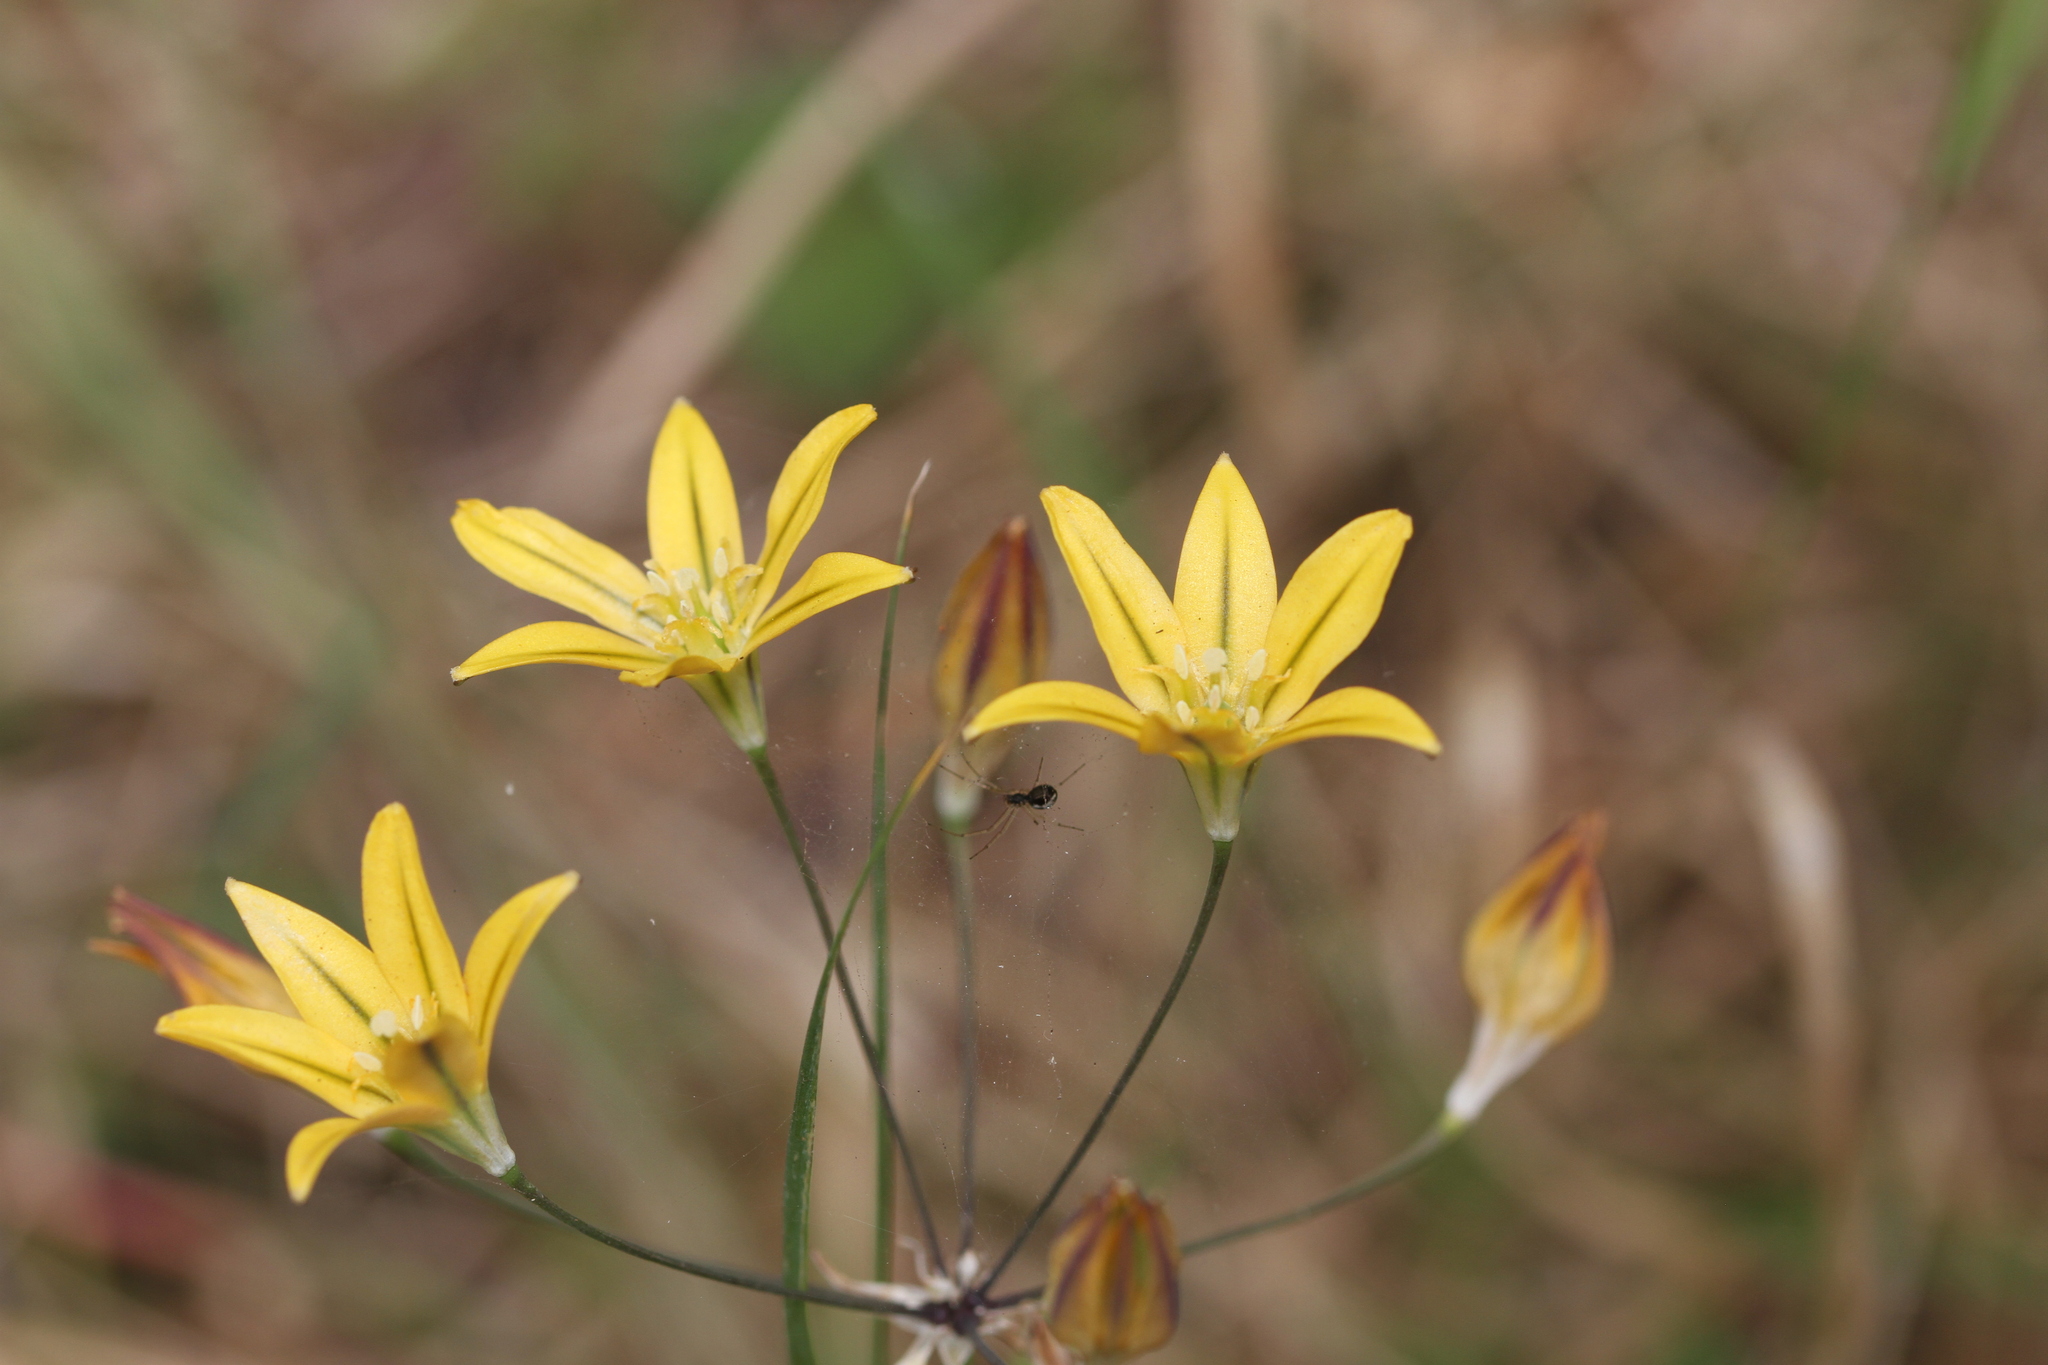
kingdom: Plantae
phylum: Tracheophyta
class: Liliopsida
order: Asparagales
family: Asparagaceae
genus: Triteleia
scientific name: Triteleia ixioides
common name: Yellow-brodiaea
